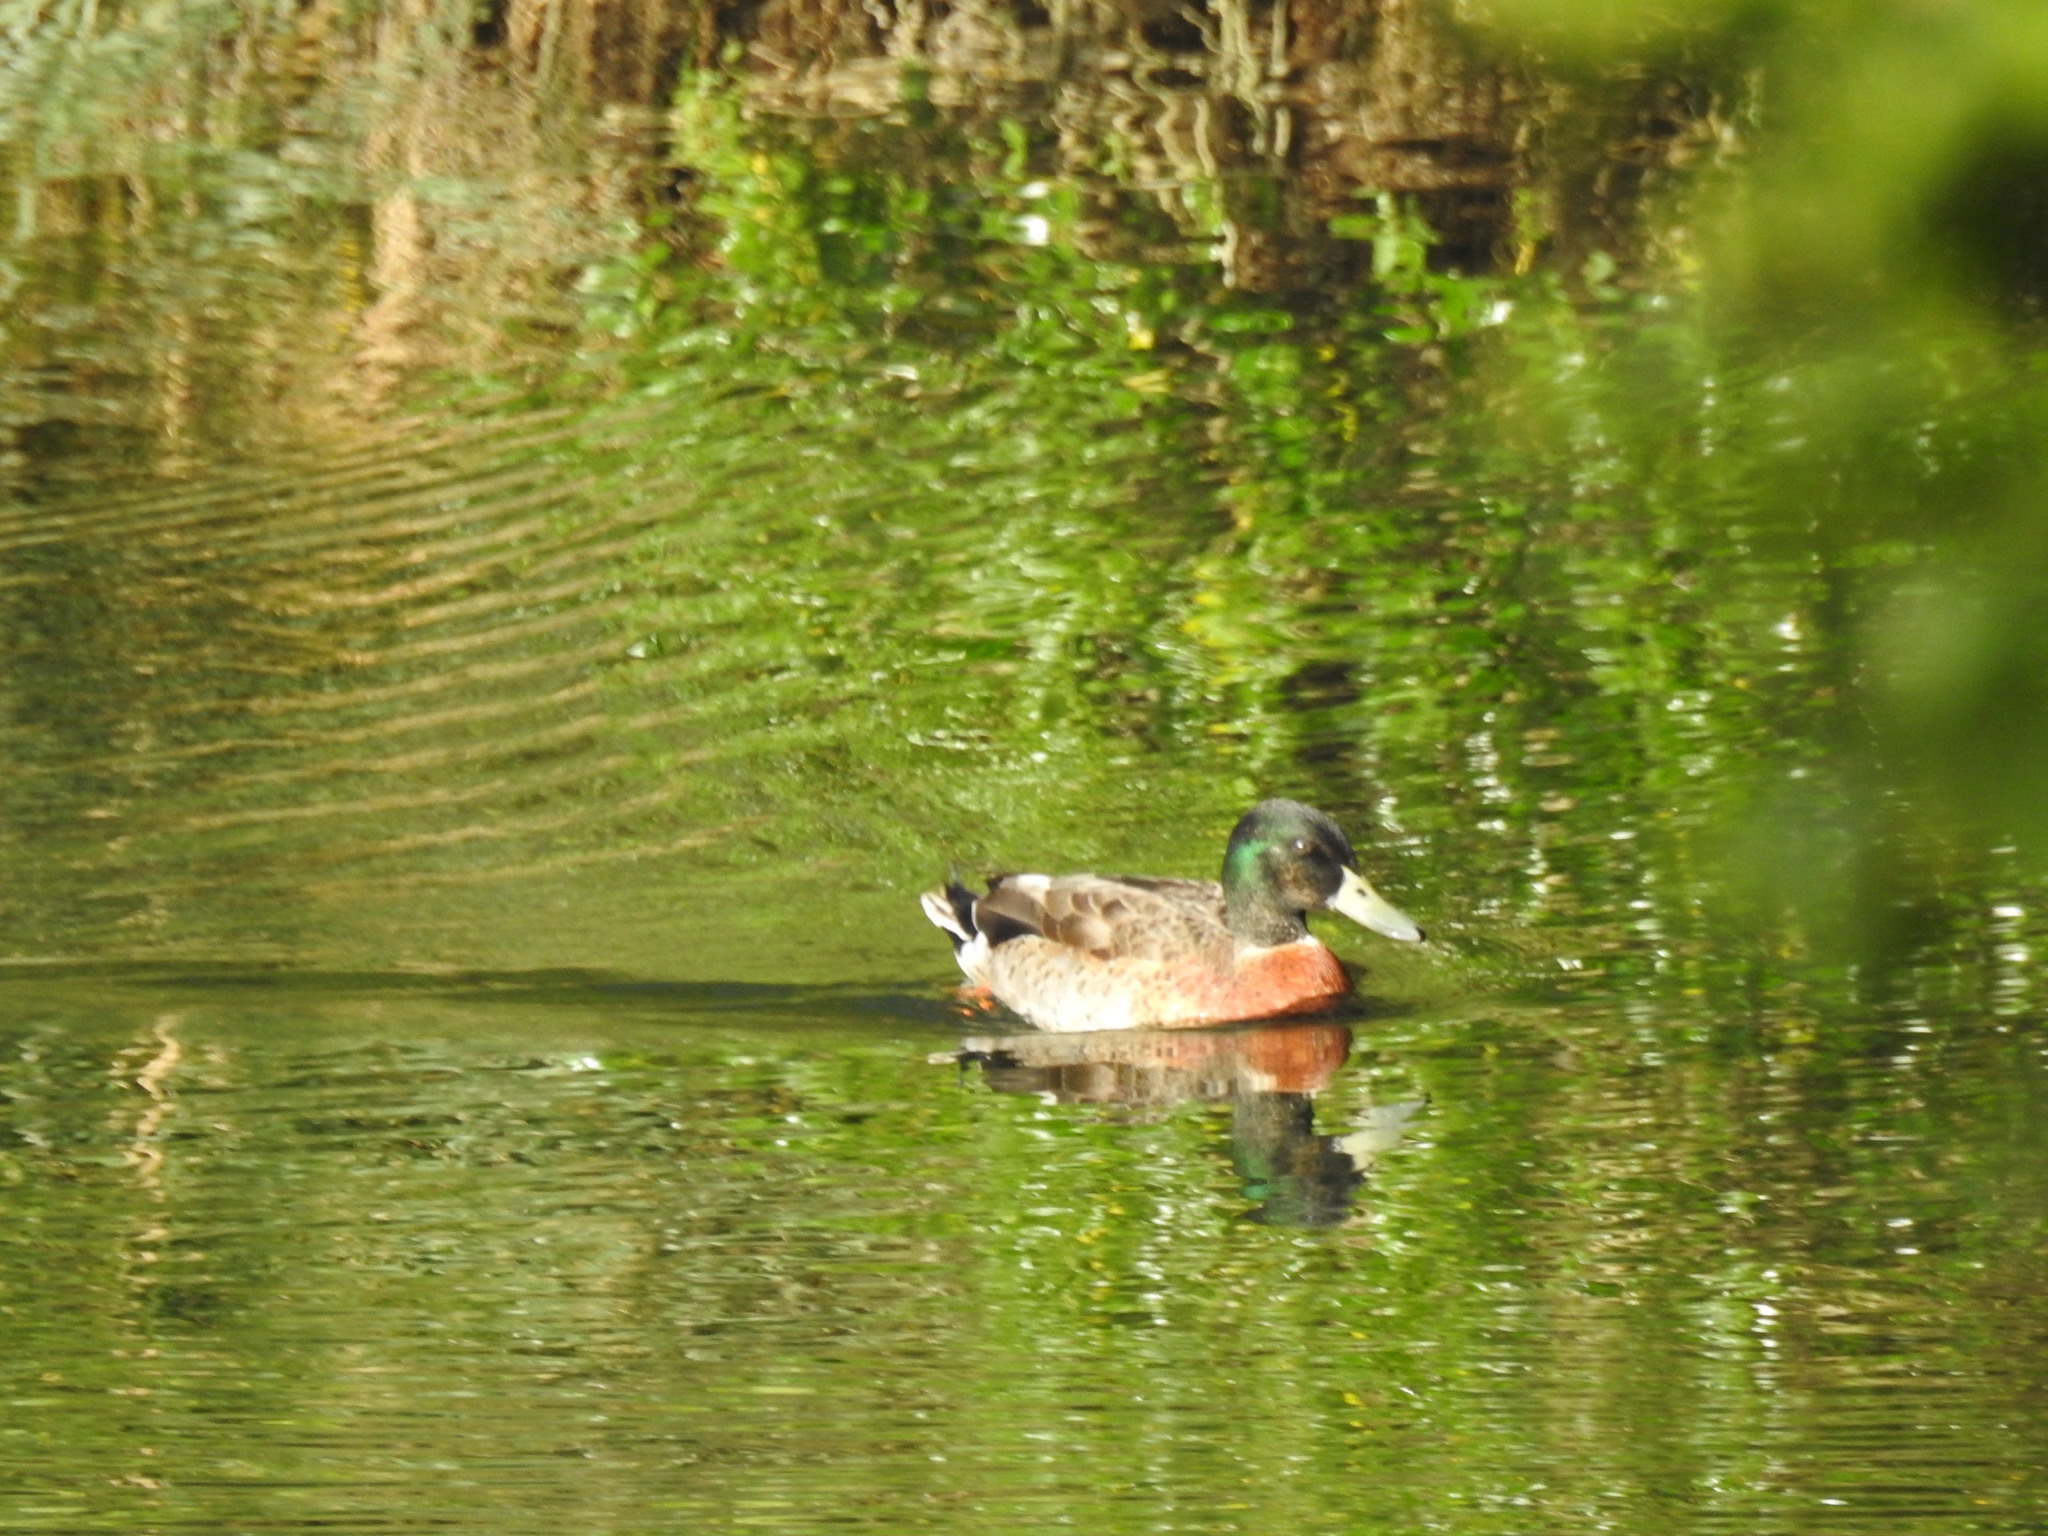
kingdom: Animalia
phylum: Chordata
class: Aves
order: Anseriformes
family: Anatidae
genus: Anas
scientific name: Anas platyrhynchos
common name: Mallard
